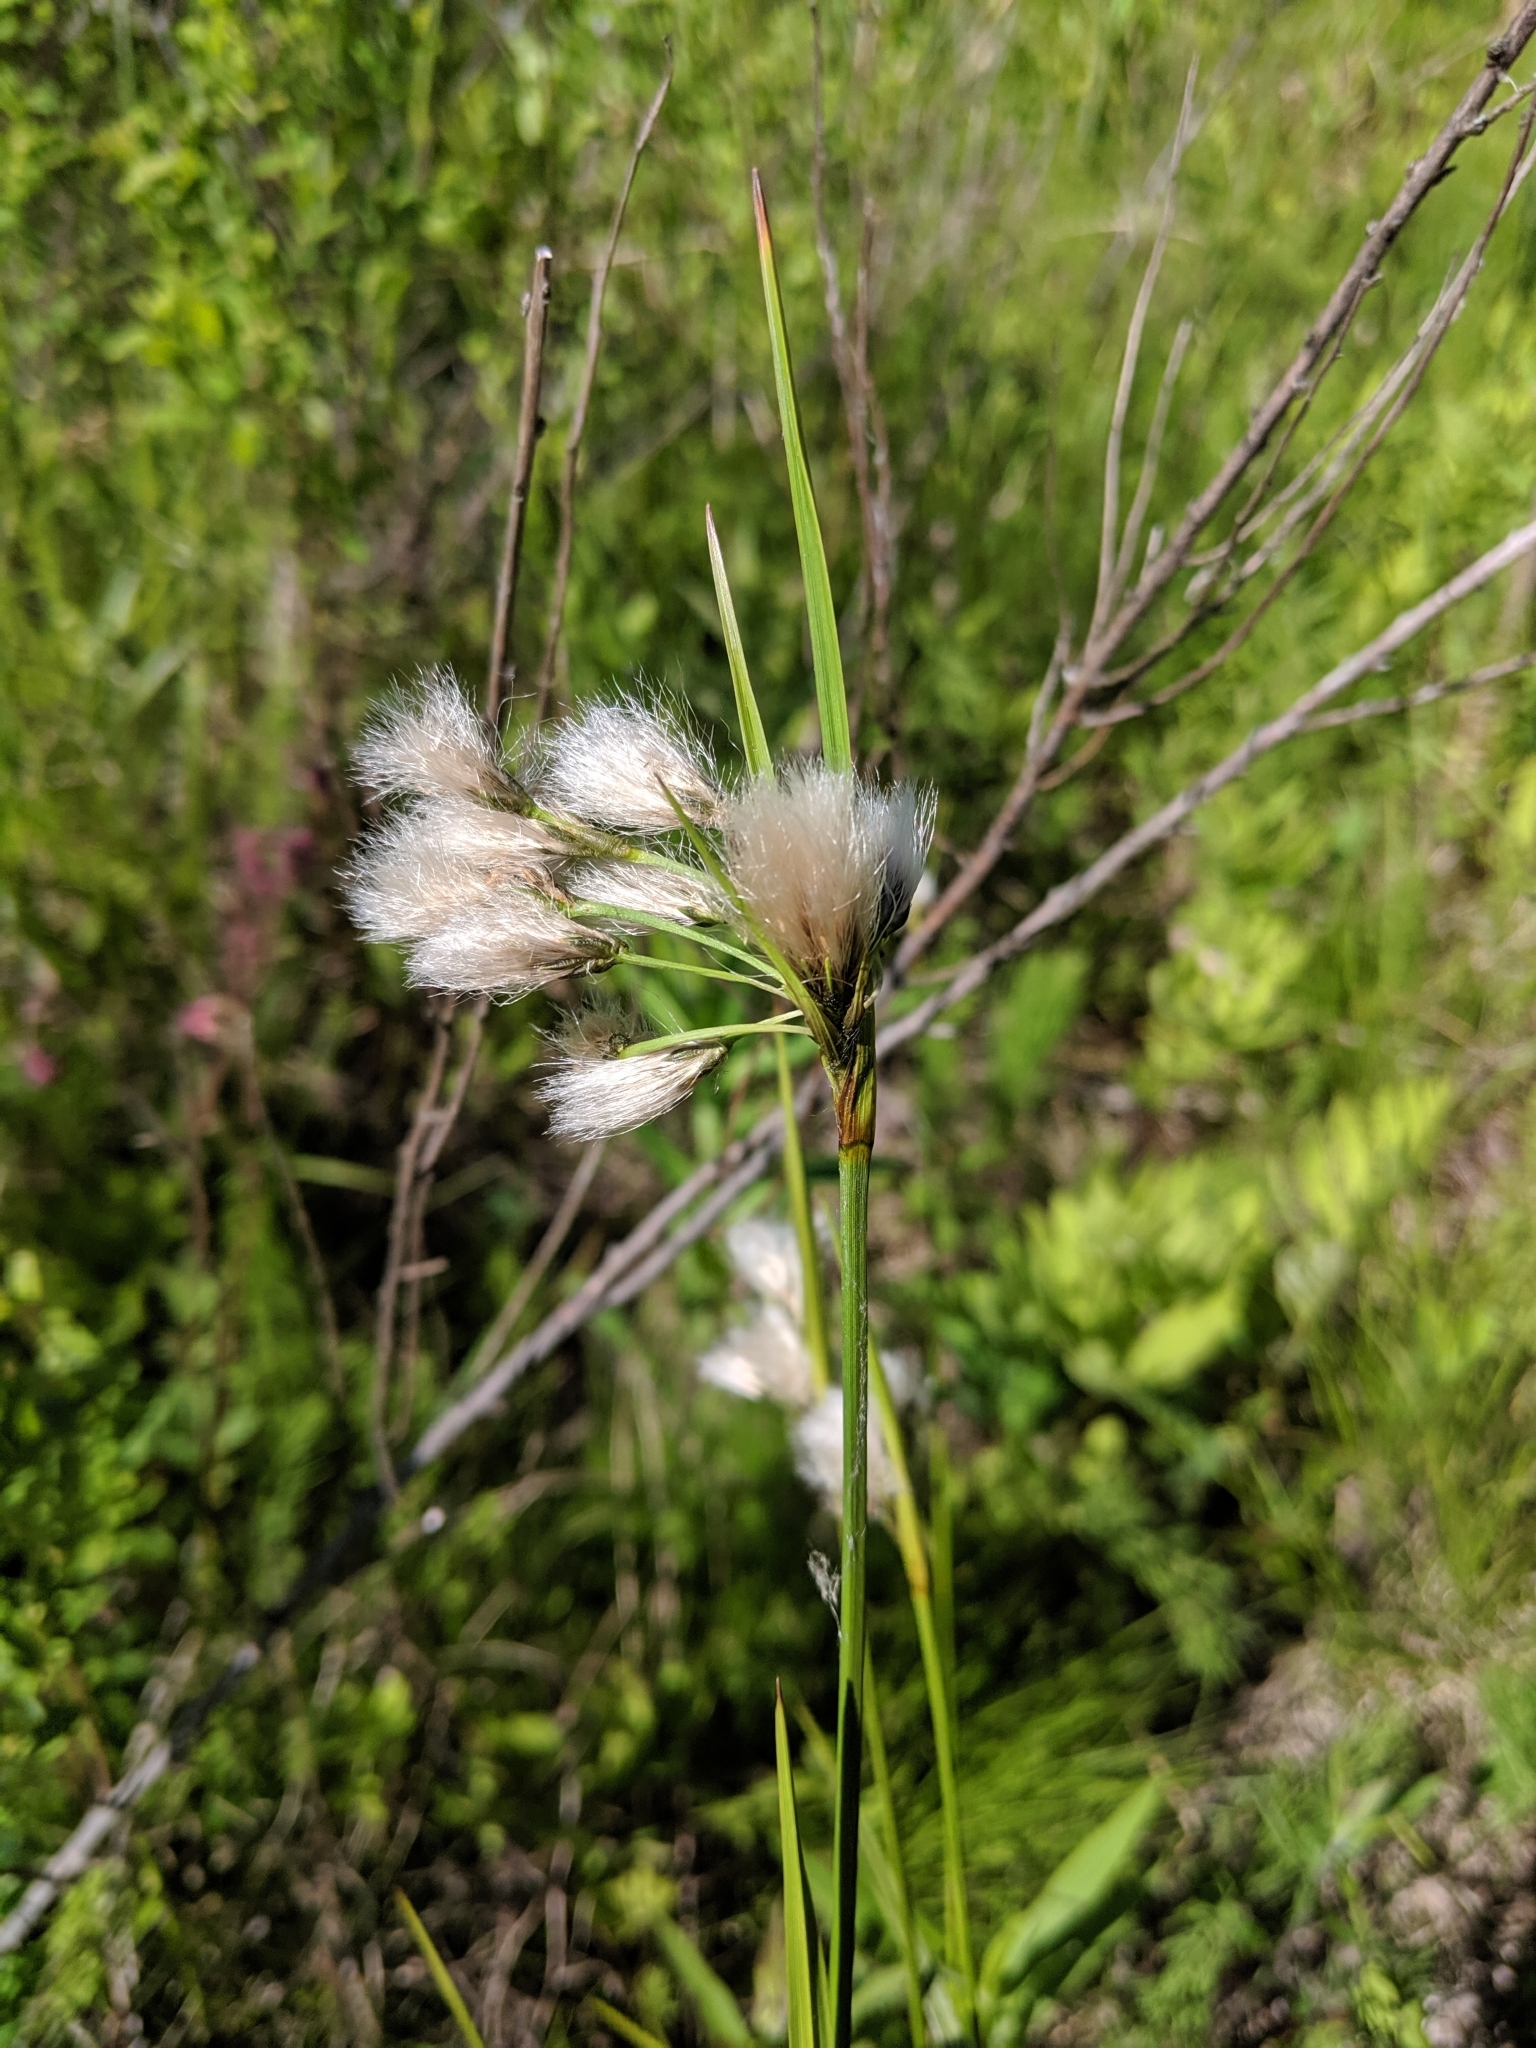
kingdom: Plantae
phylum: Tracheophyta
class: Liliopsida
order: Poales
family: Cyperaceae
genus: Eriophorum
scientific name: Eriophorum viridicarinatum
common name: Green-keeled cottongrass
